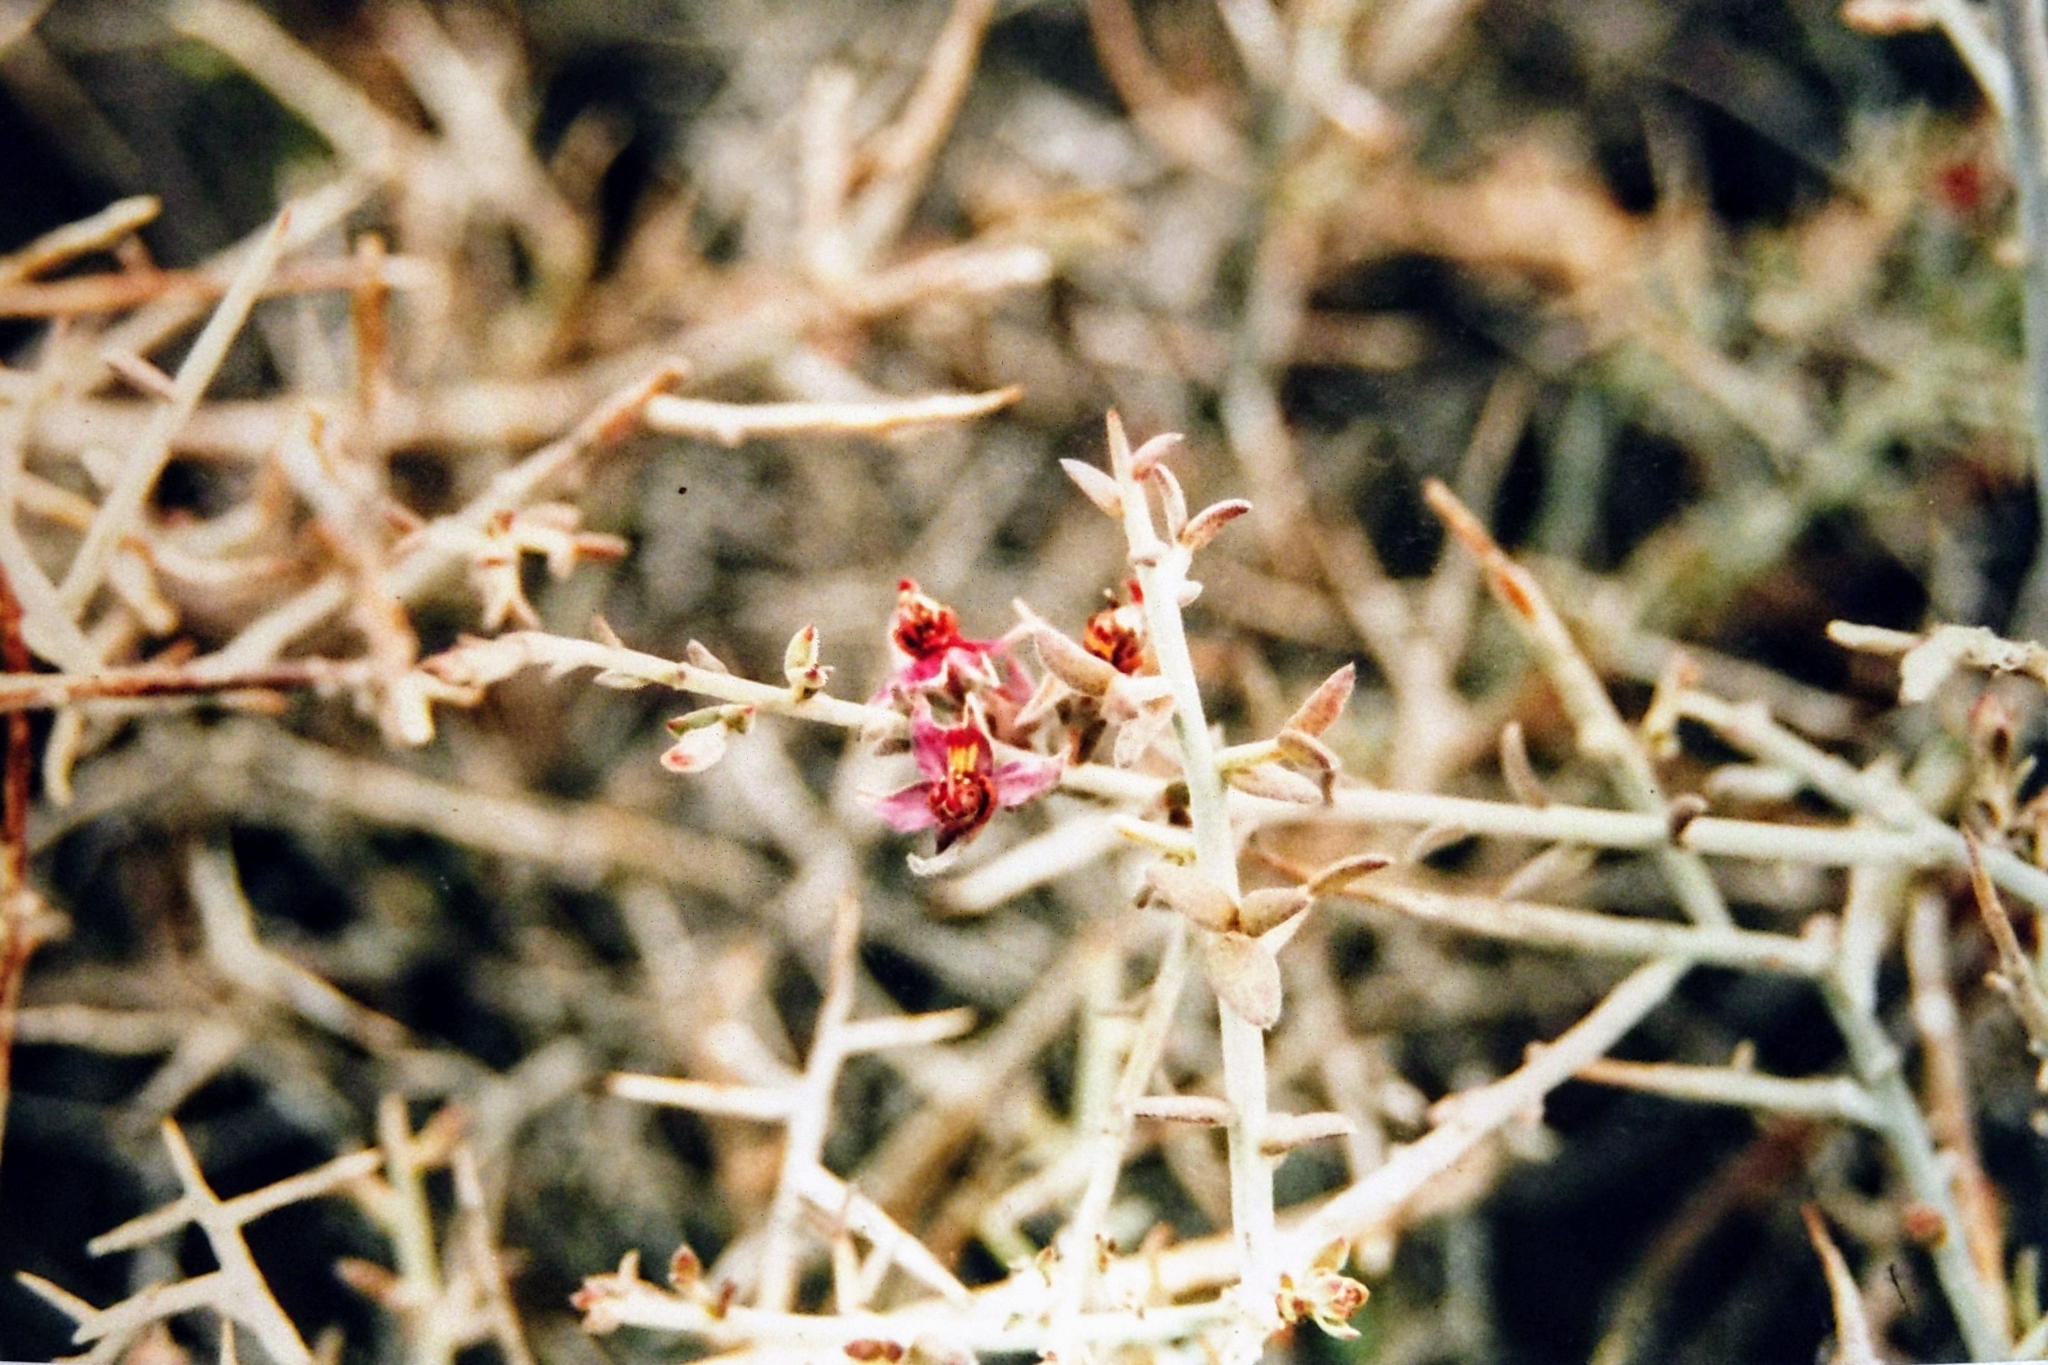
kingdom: Plantae
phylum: Tracheophyta
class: Magnoliopsida
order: Zygophyllales
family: Krameriaceae
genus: Krameria
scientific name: Krameria bicolor
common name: White ratany
